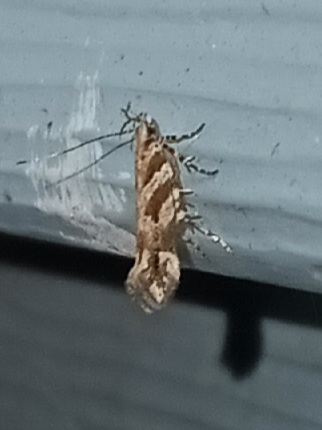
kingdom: Animalia
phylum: Arthropoda
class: Insecta
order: Lepidoptera
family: Gelechiidae
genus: Aristotelia
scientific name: Aristotelia roseosuffusella
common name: Pink-washed aristotelia moth
